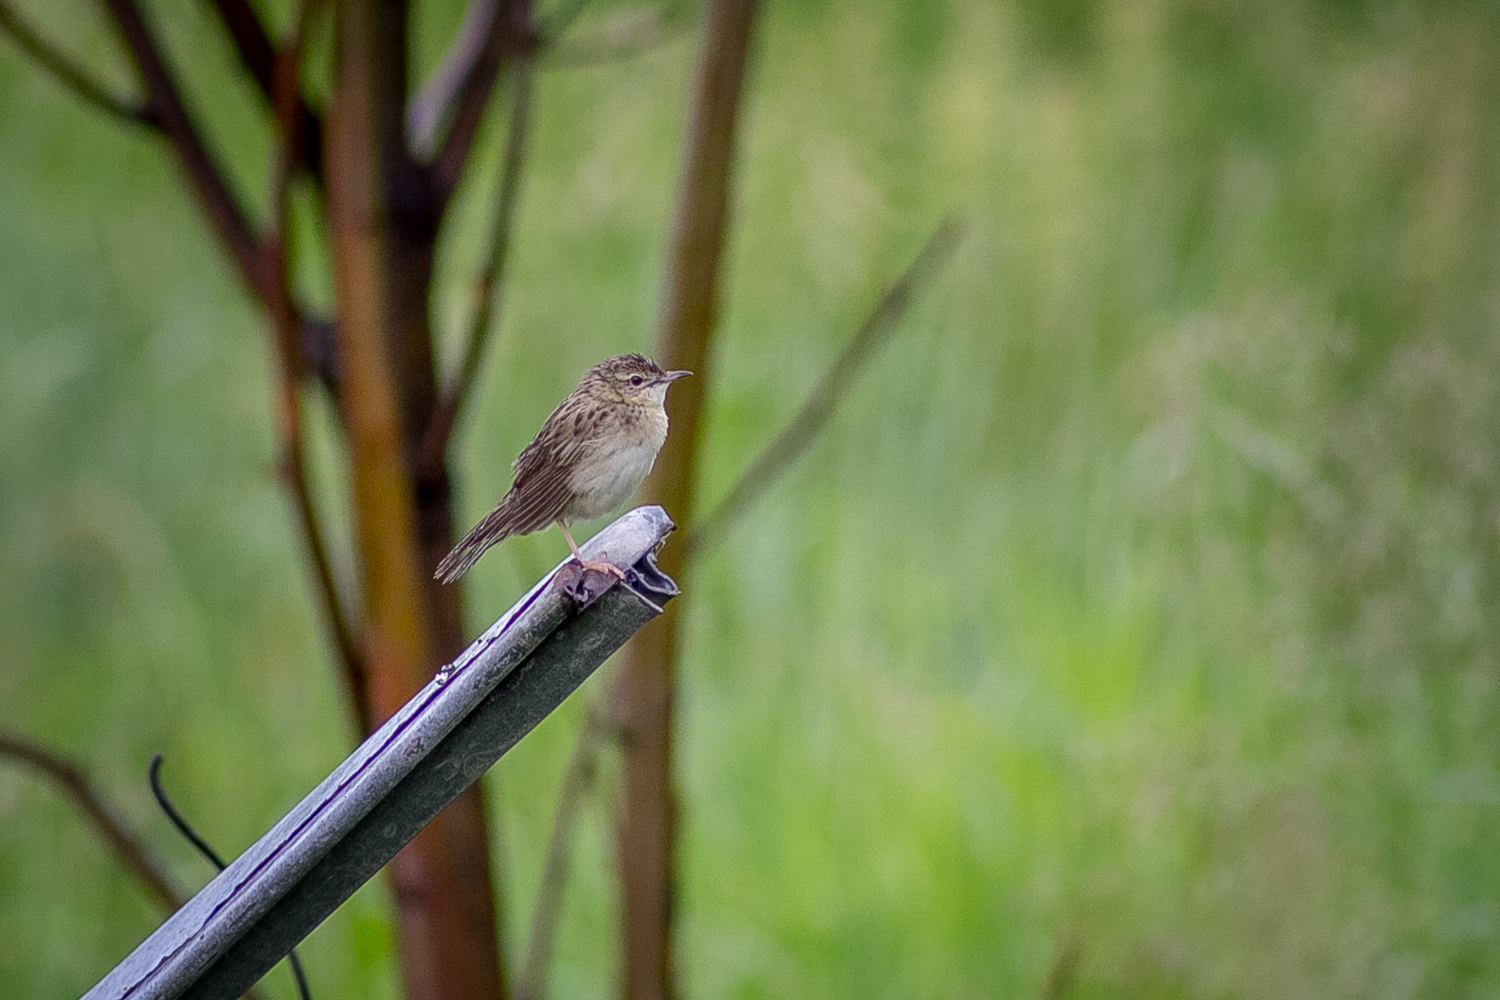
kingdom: Animalia
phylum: Chordata
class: Aves
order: Passeriformes
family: Locustellidae
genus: Locustella
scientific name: Locustella naevia
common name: Common grasshopper warbler
